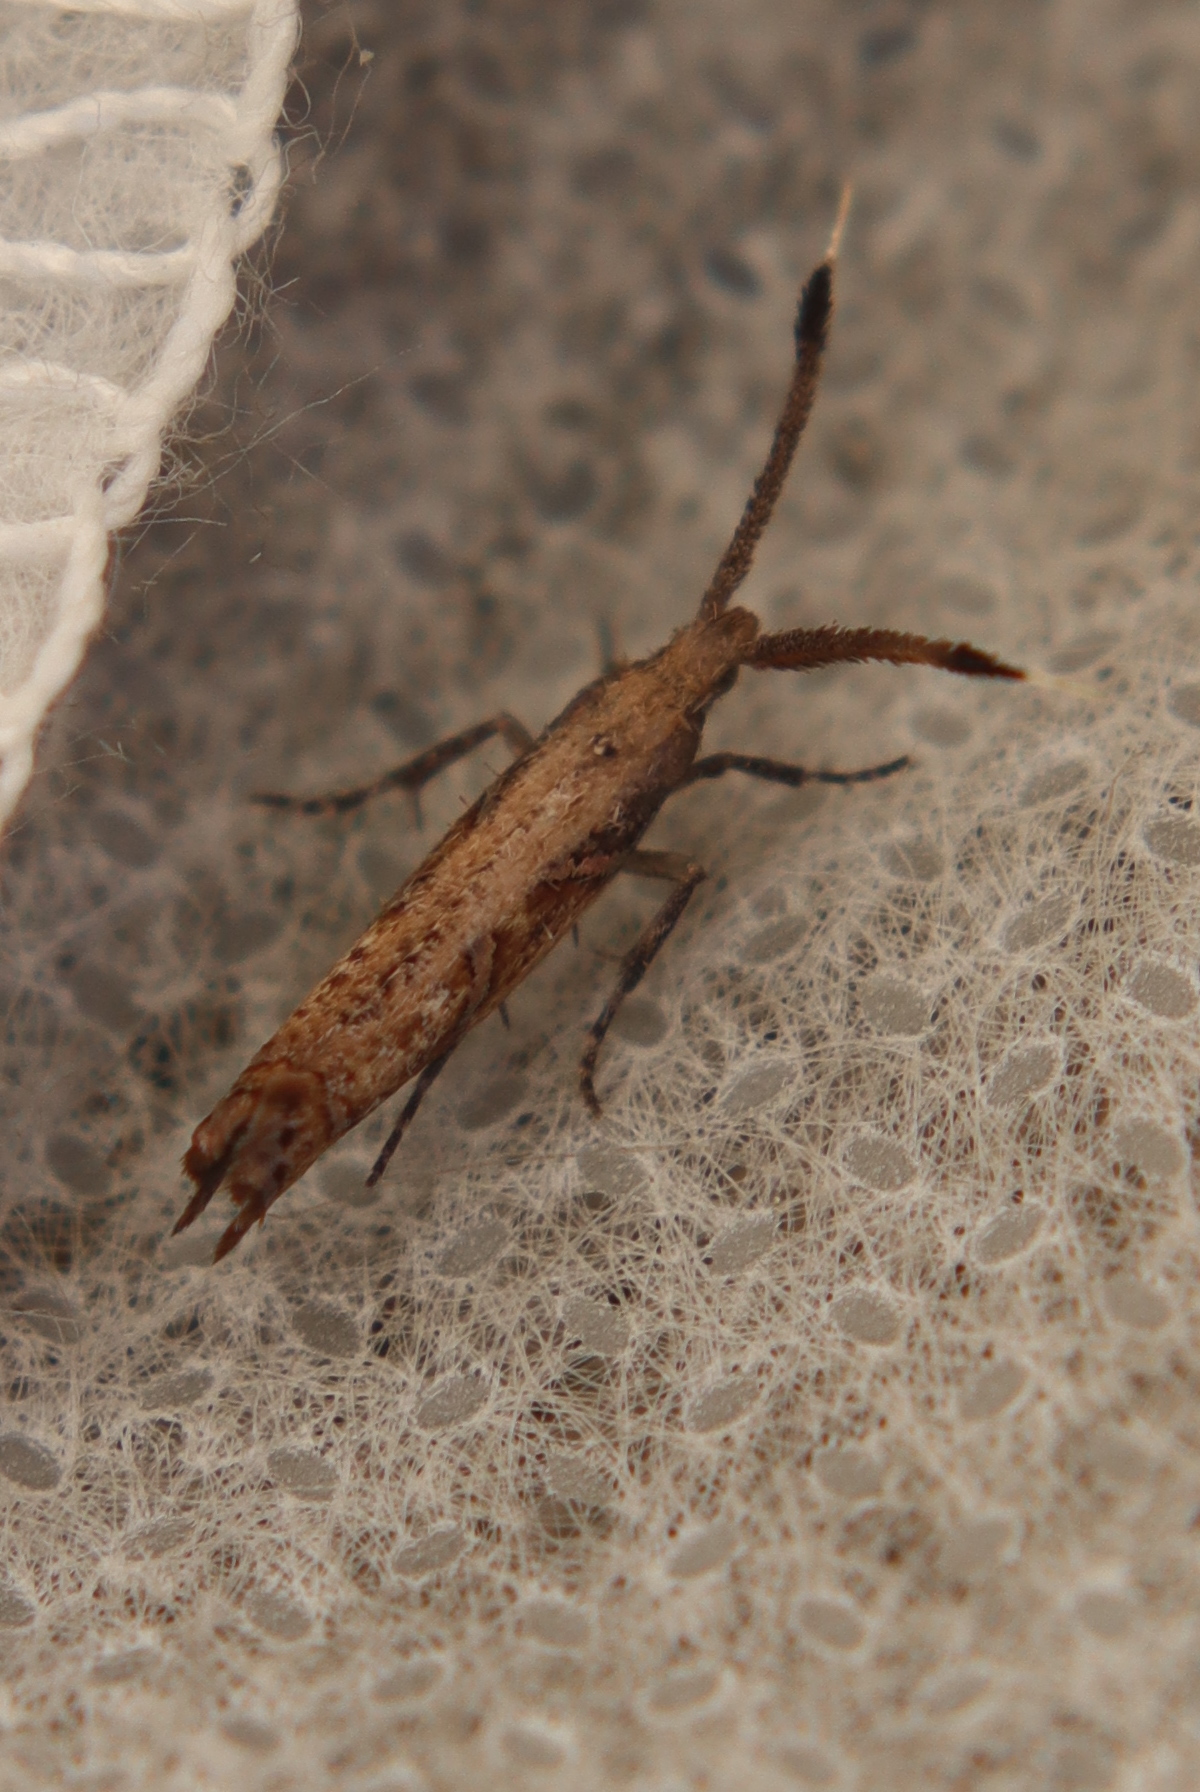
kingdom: Animalia
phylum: Arthropoda
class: Insecta
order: Lepidoptera
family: Plutellidae
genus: Protosynaema
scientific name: Protosynaema steropucha
